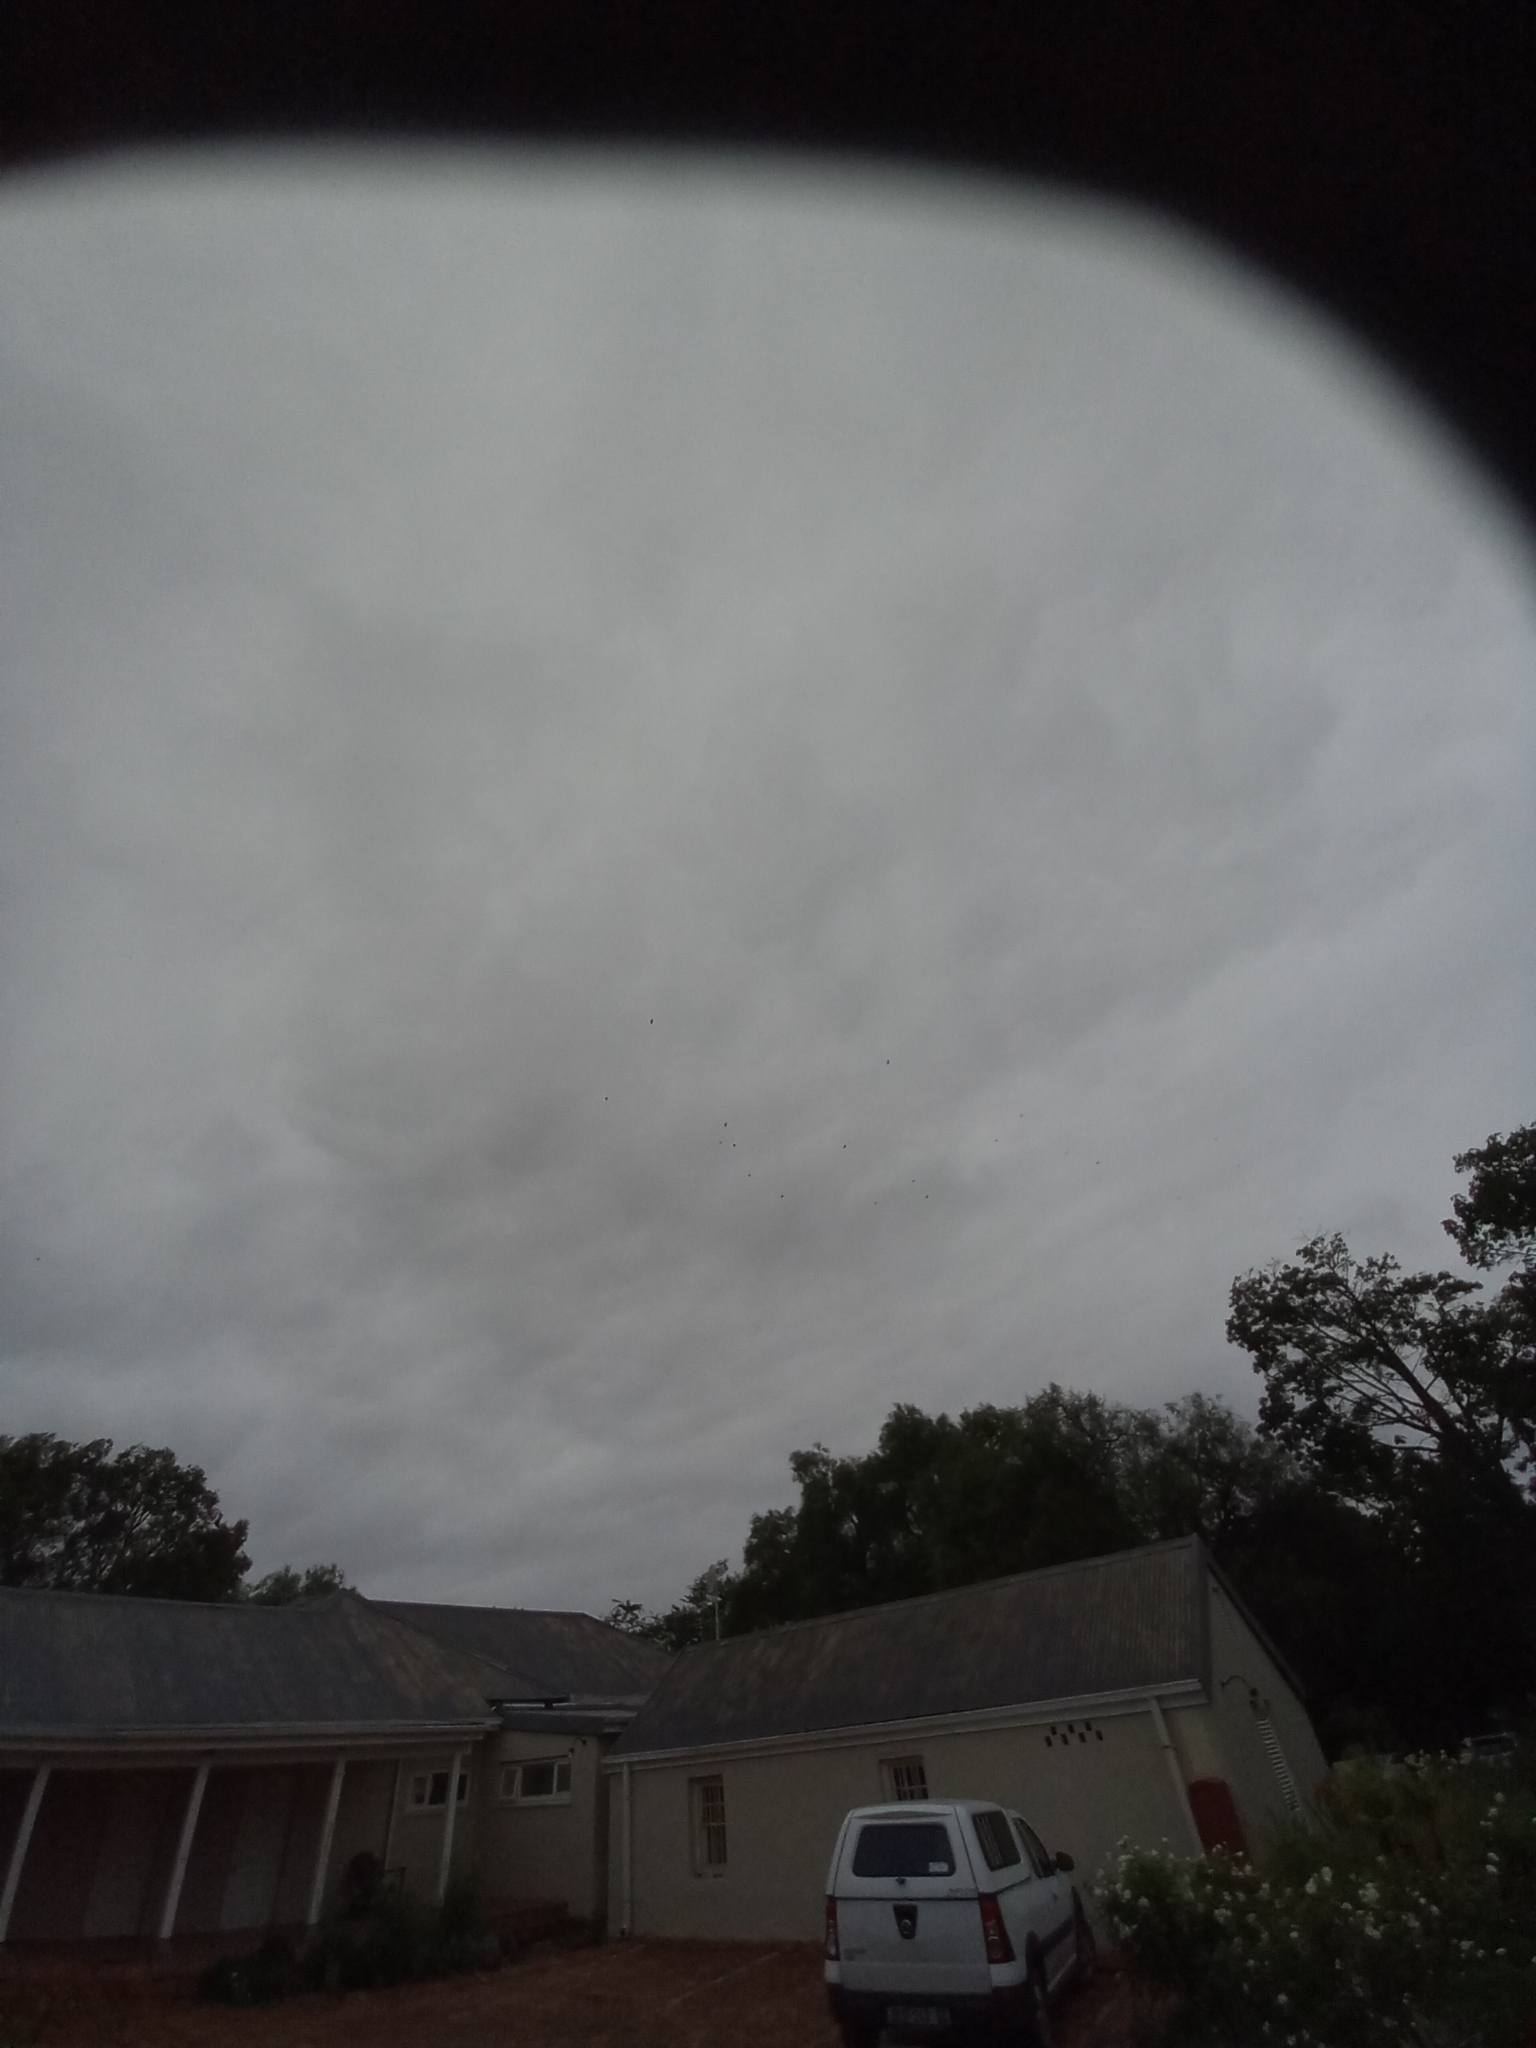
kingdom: Animalia
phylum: Chordata
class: Aves
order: Falconiformes
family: Falconidae
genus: Falco
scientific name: Falco amurensis
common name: Amur falcon
